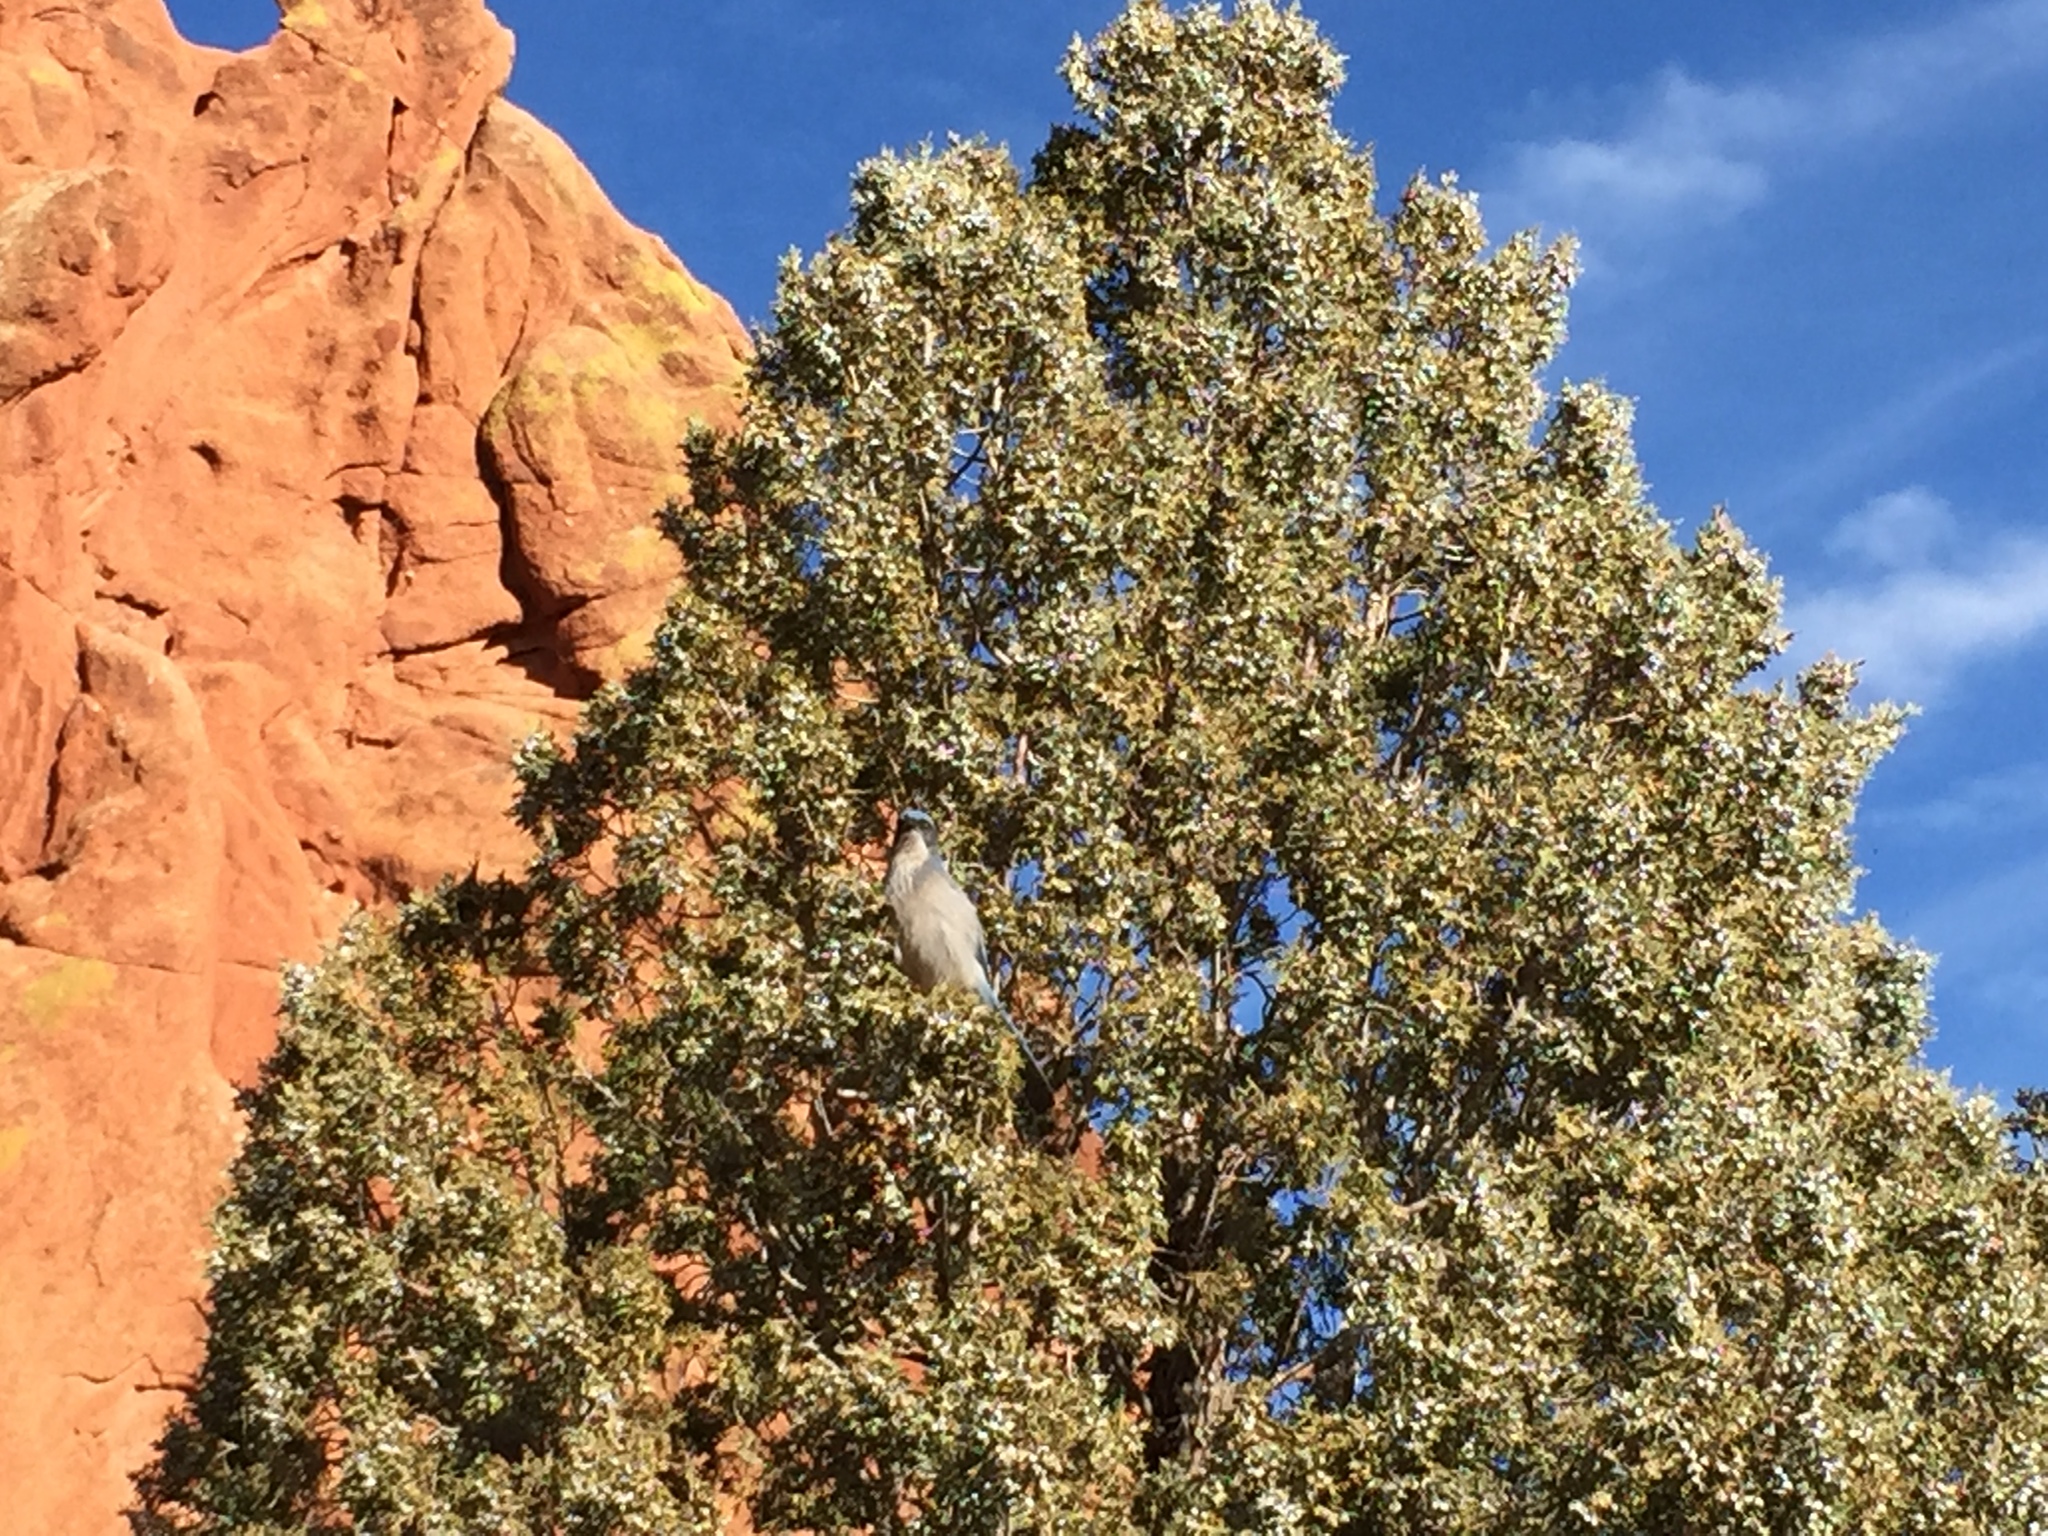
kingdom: Animalia
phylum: Chordata
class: Aves
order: Passeriformes
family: Corvidae
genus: Aphelocoma
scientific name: Aphelocoma woodhouseii
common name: Woodhouse's scrub-jay
